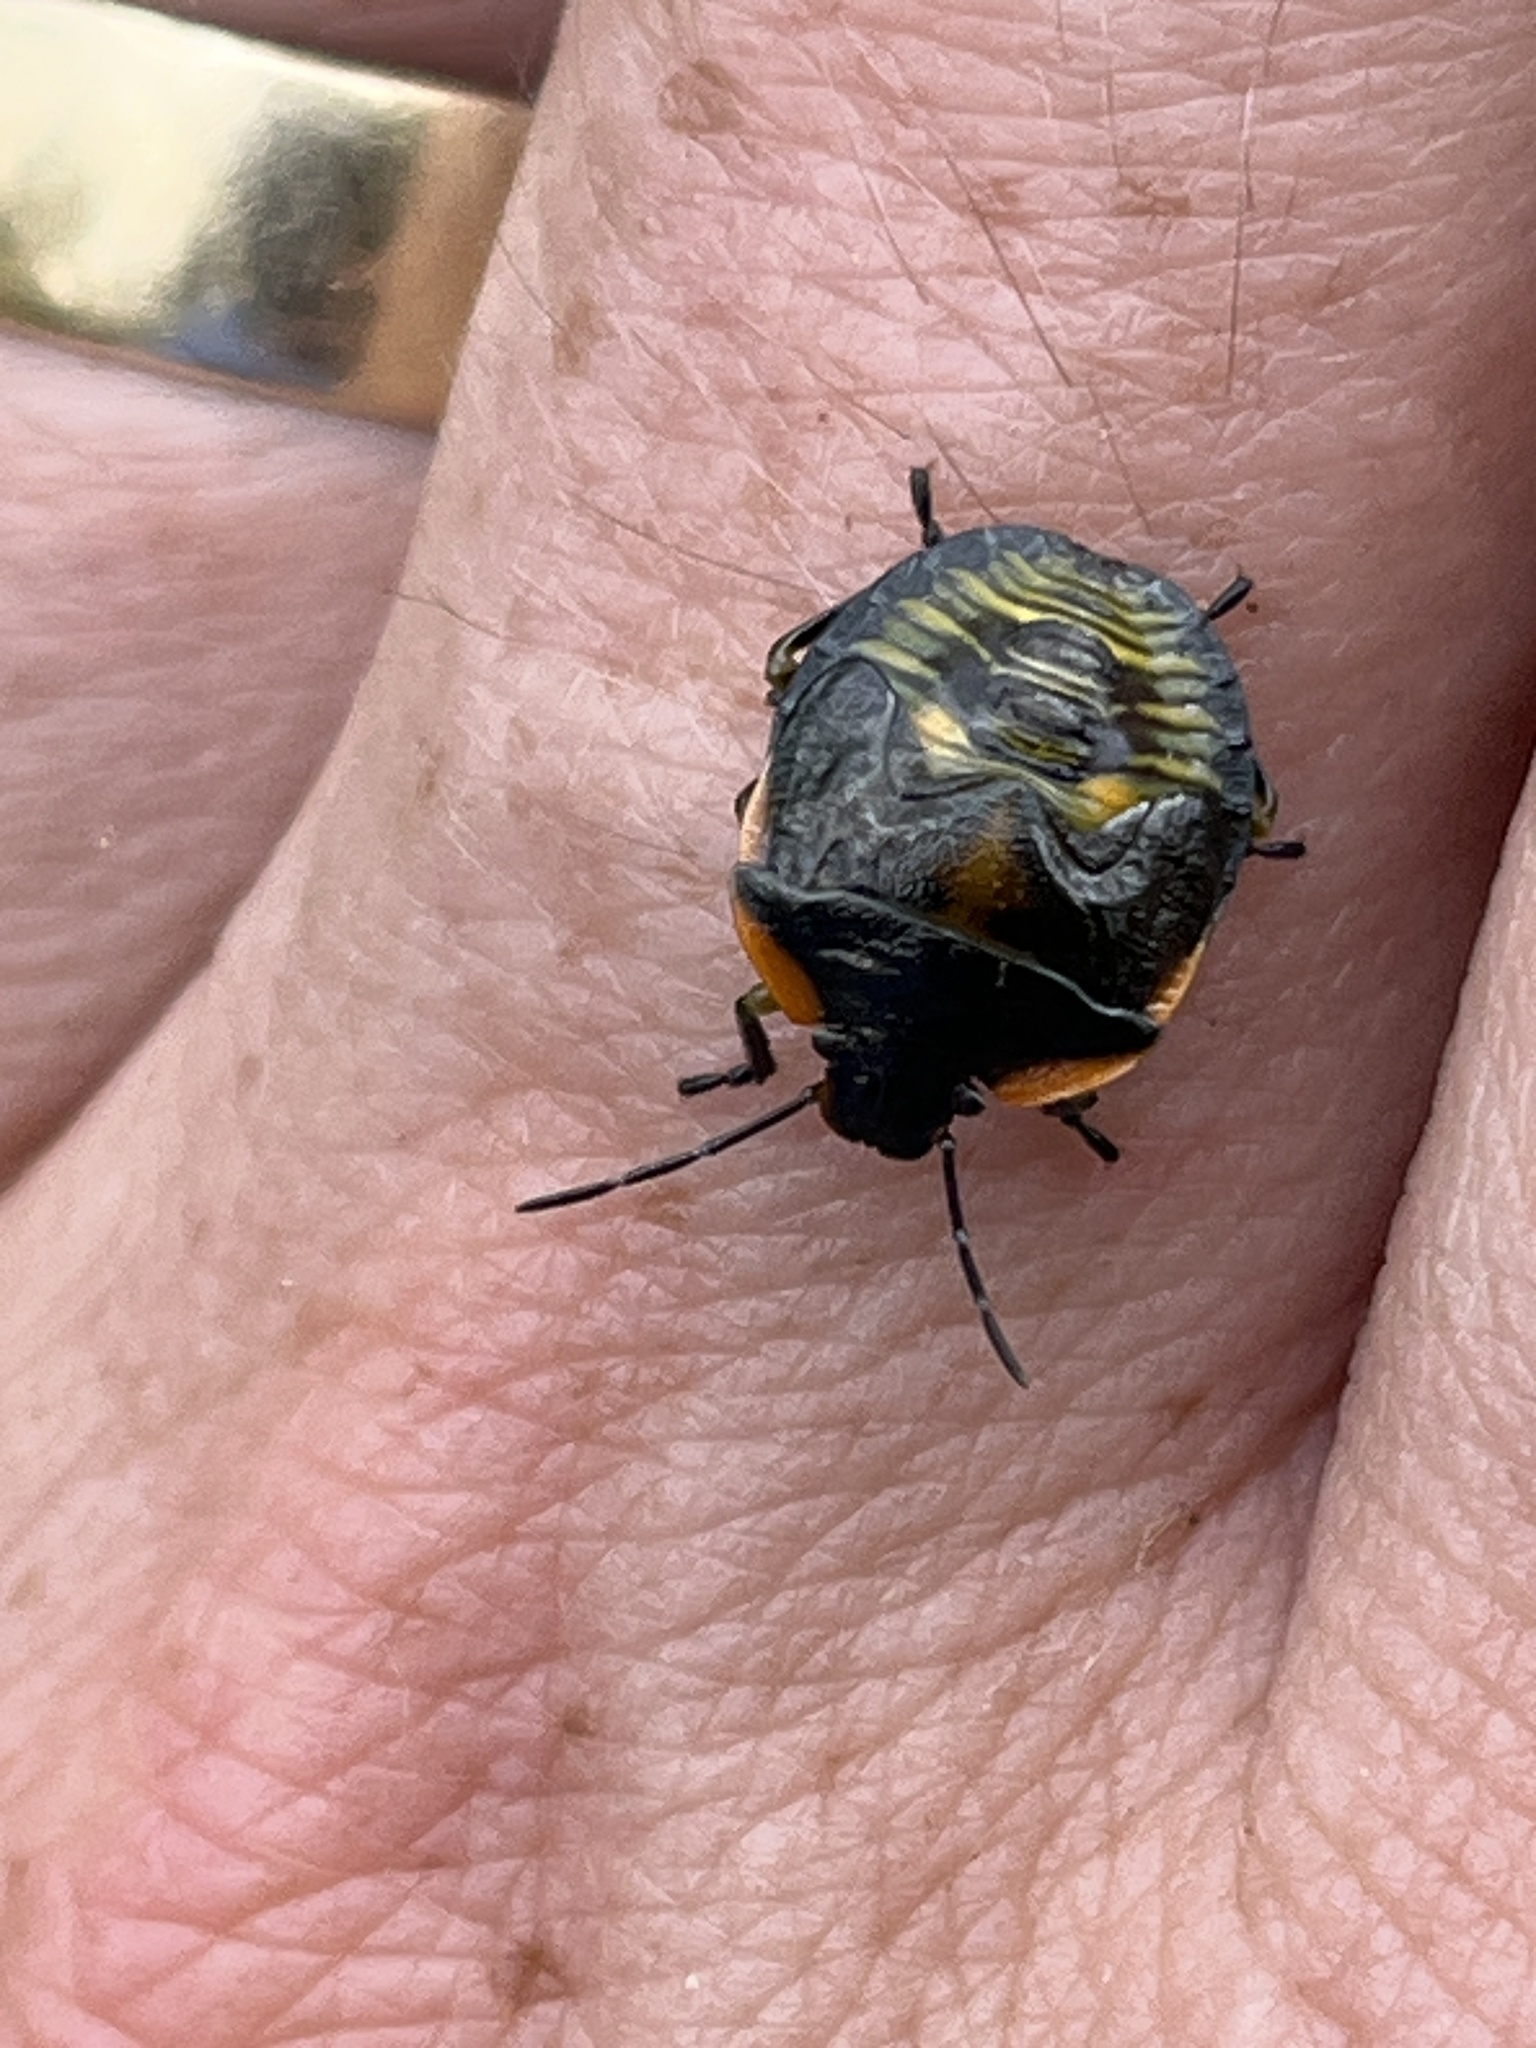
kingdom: Animalia
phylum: Arthropoda
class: Insecta
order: Hemiptera
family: Pentatomidae
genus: Chinavia
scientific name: Chinavia hilaris
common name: Green stink bug
